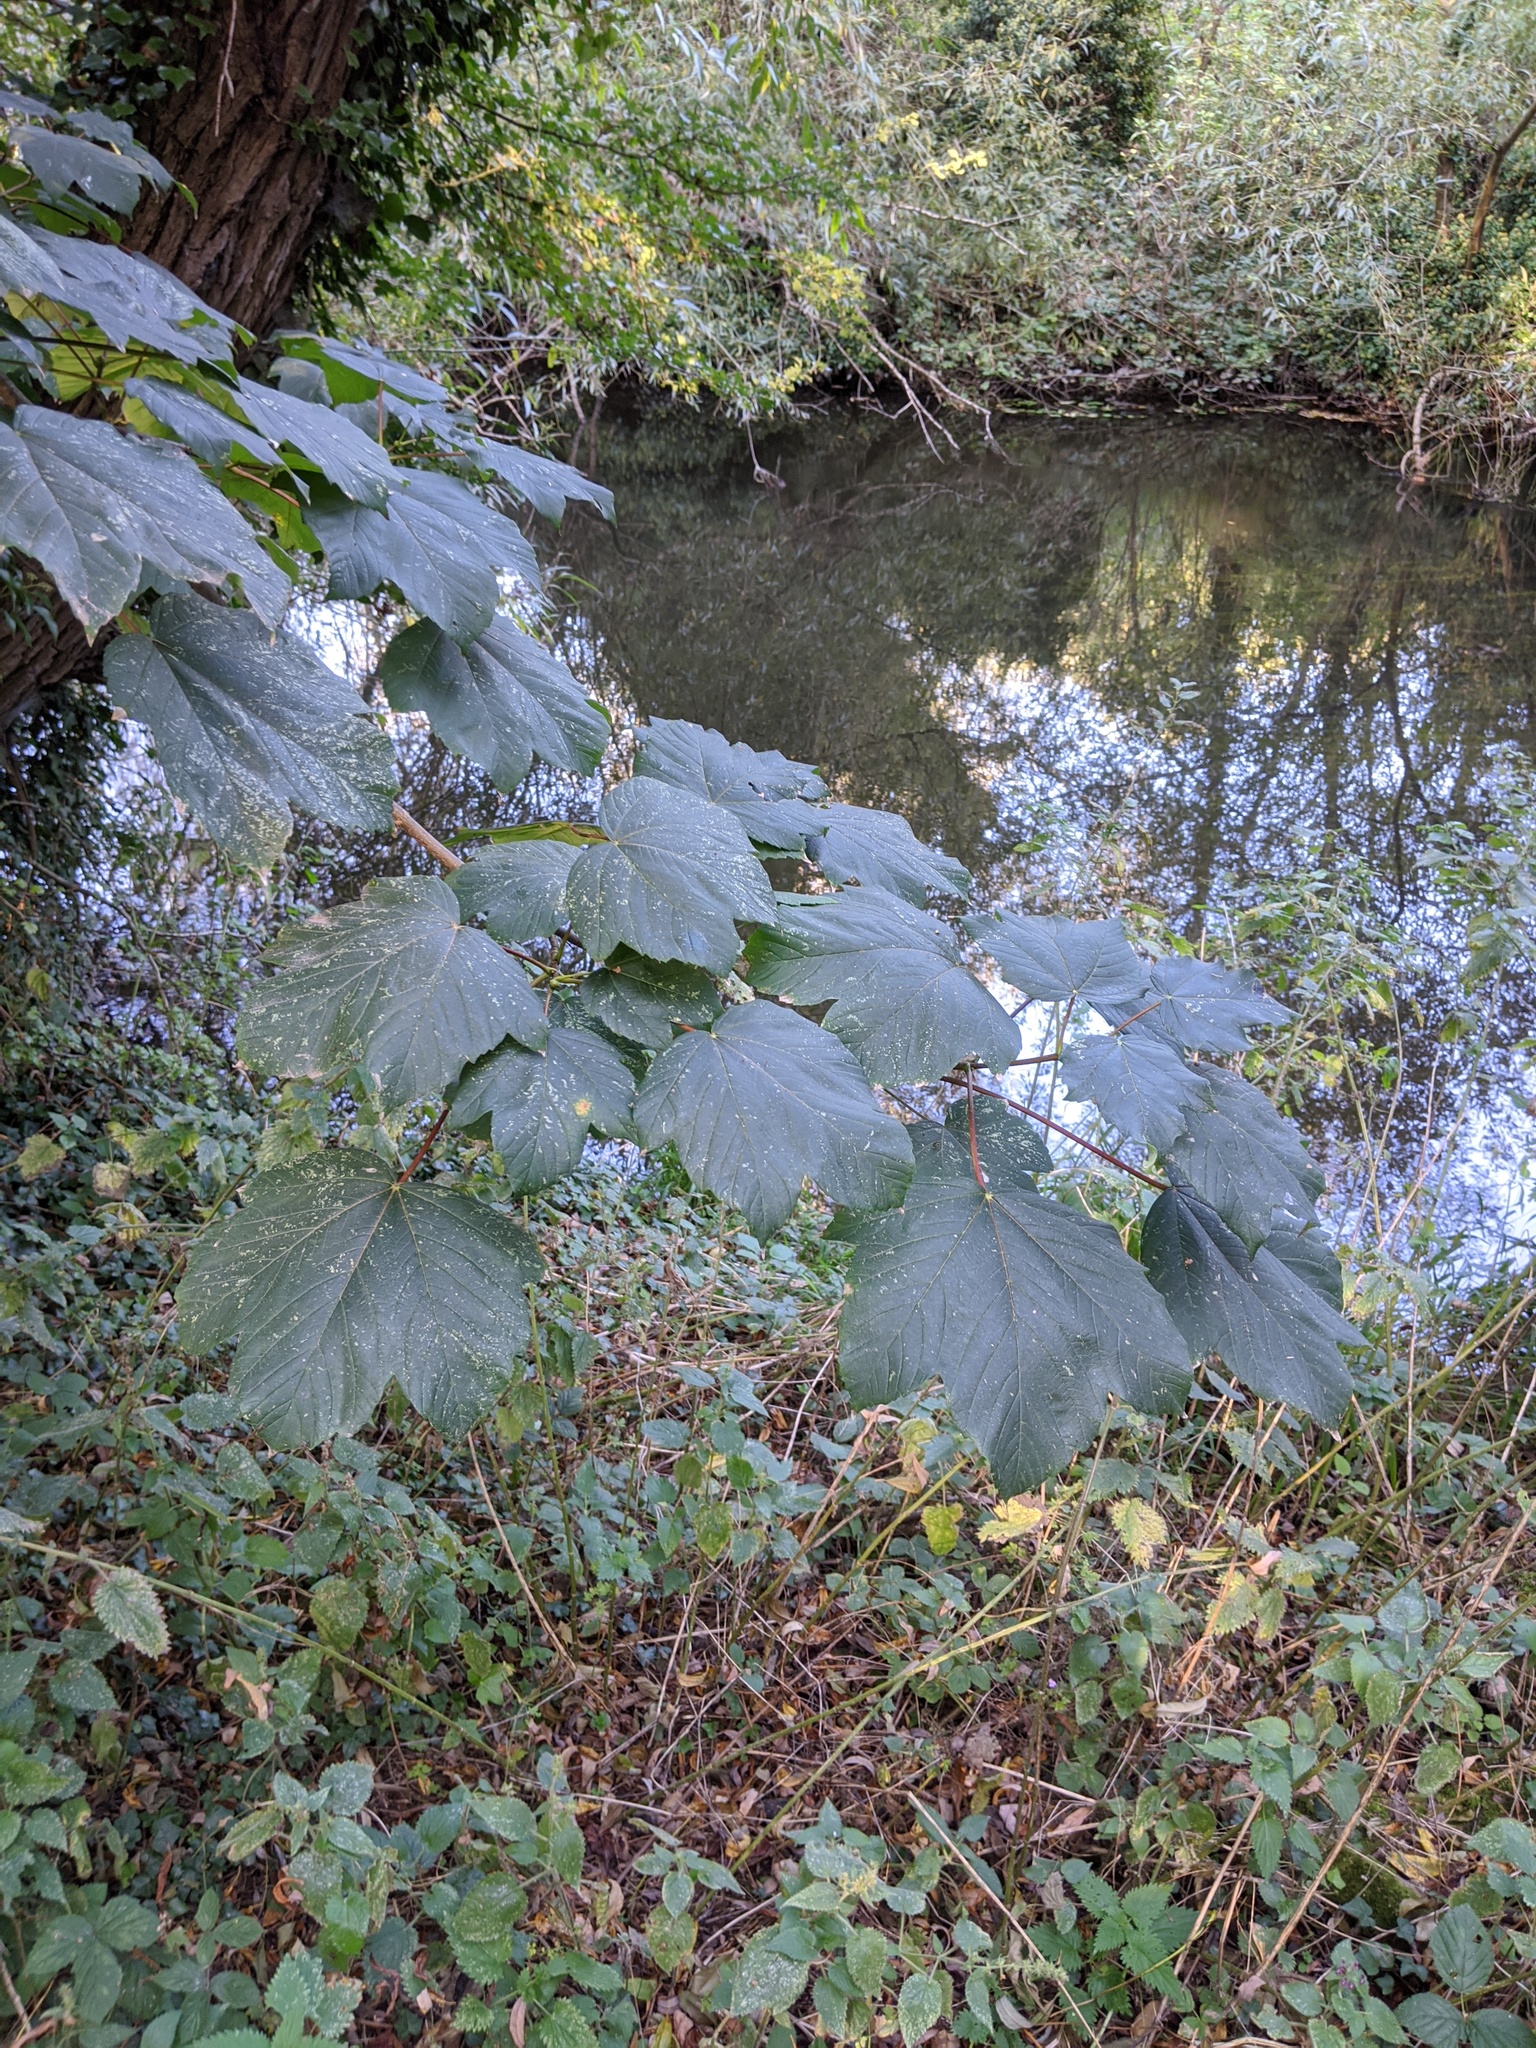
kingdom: Plantae
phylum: Tracheophyta
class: Magnoliopsida
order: Sapindales
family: Sapindaceae
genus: Acer
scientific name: Acer pseudoplatanus
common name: Sycamore
